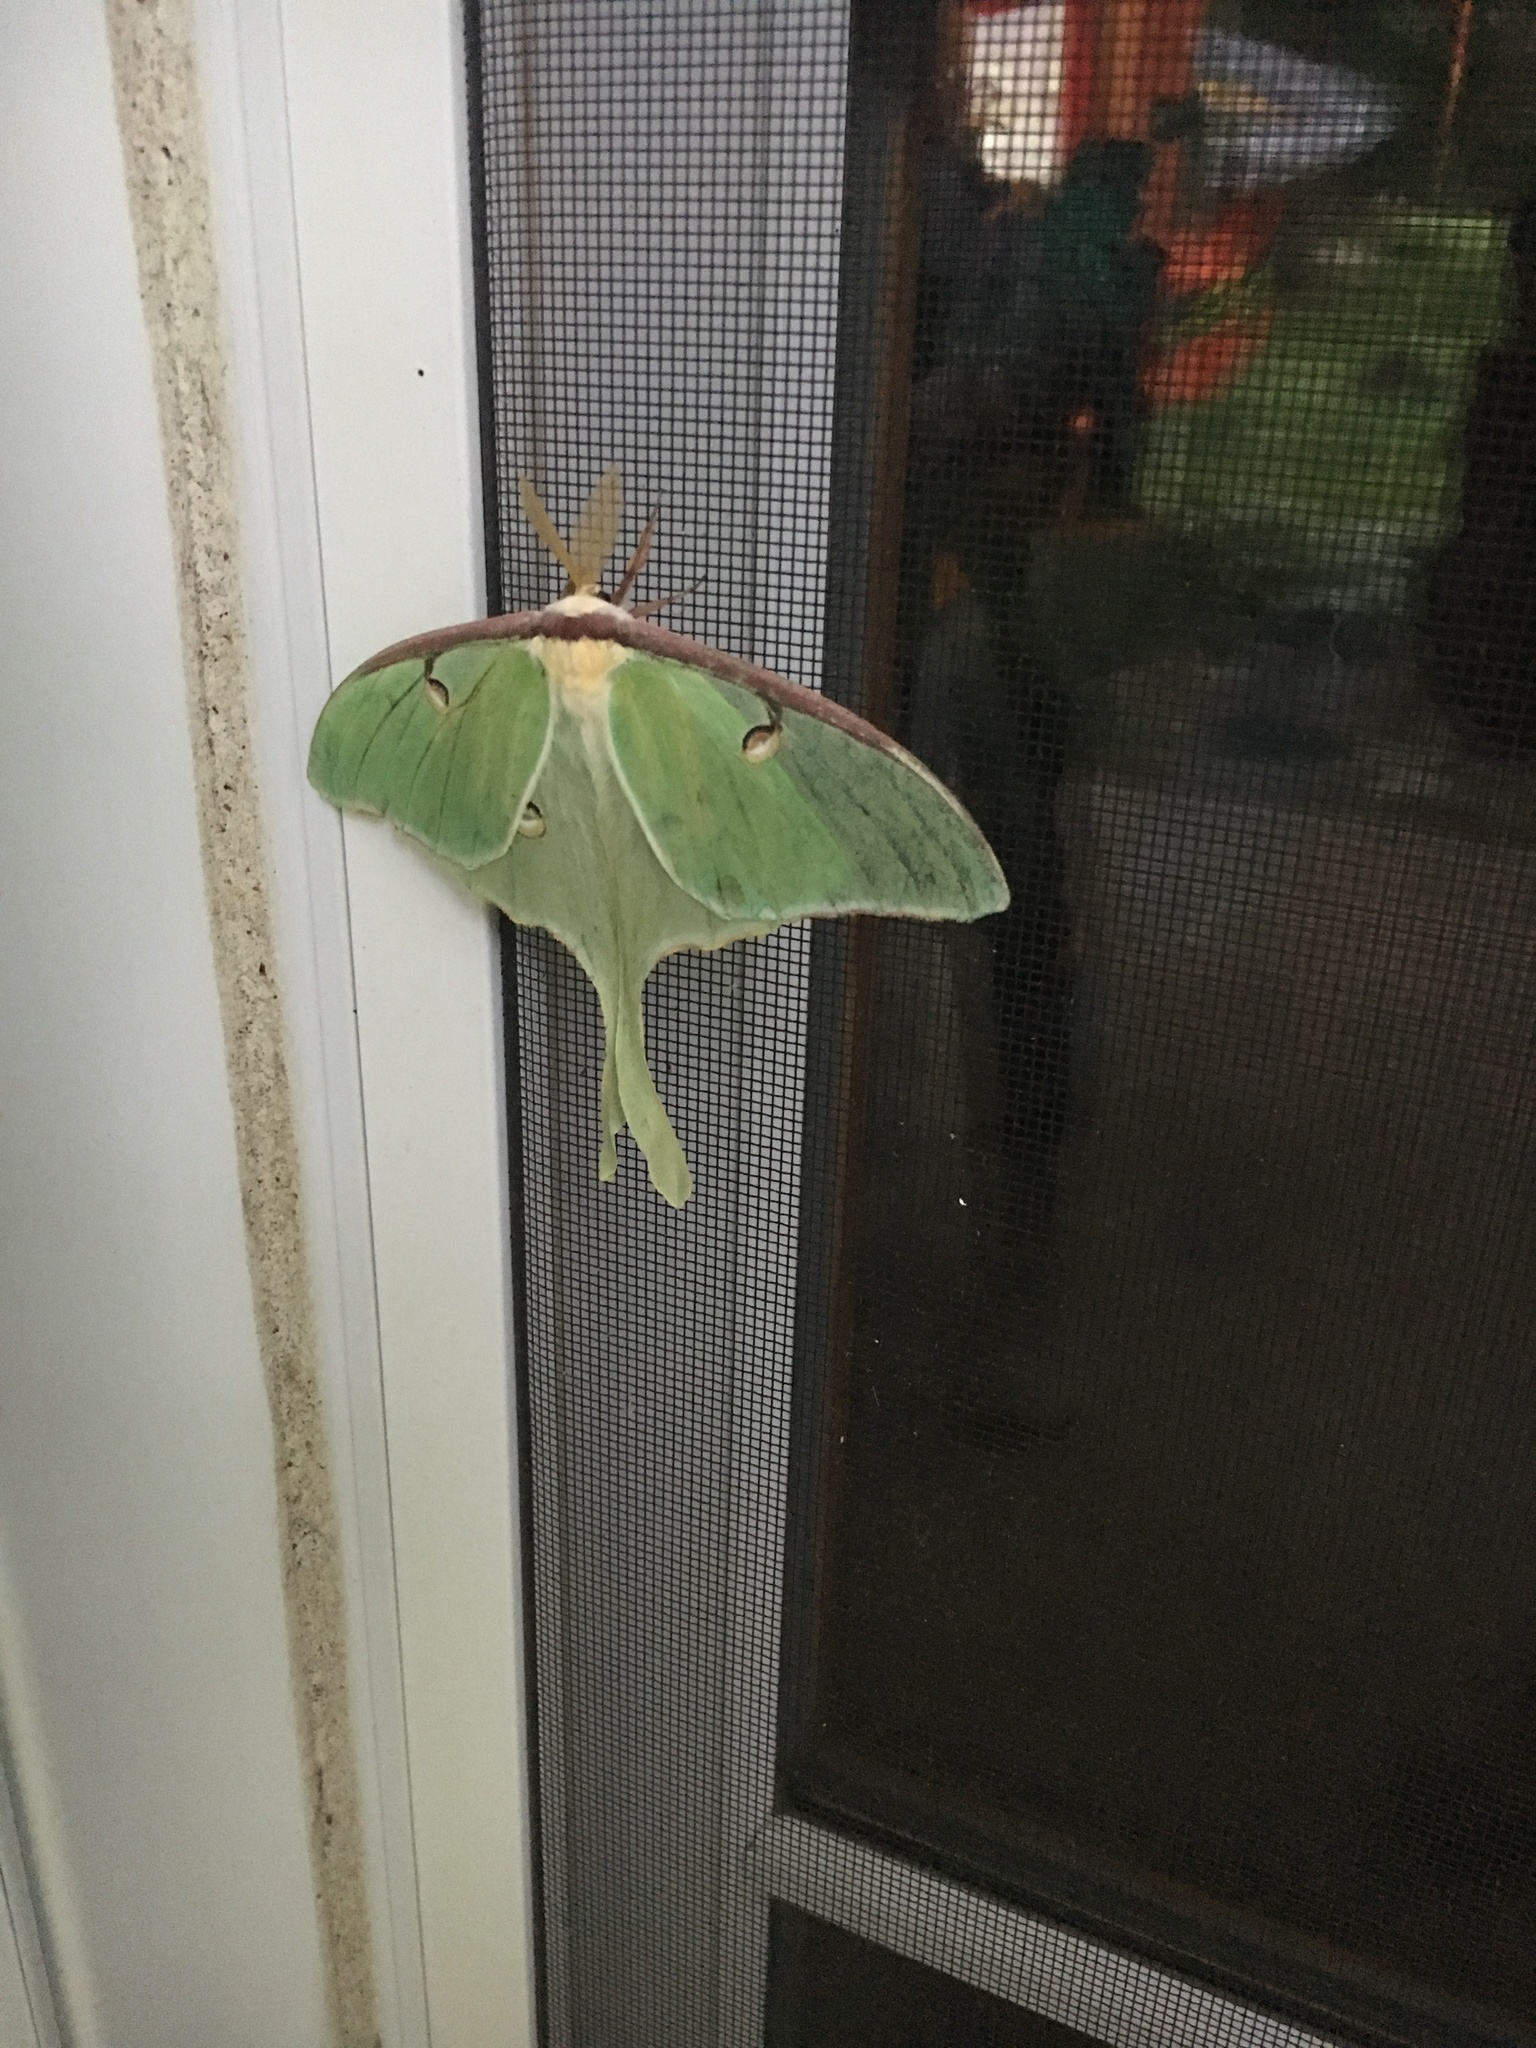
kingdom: Animalia
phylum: Arthropoda
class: Insecta
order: Lepidoptera
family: Saturniidae
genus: Actias
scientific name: Actias luna
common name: Luna moth
